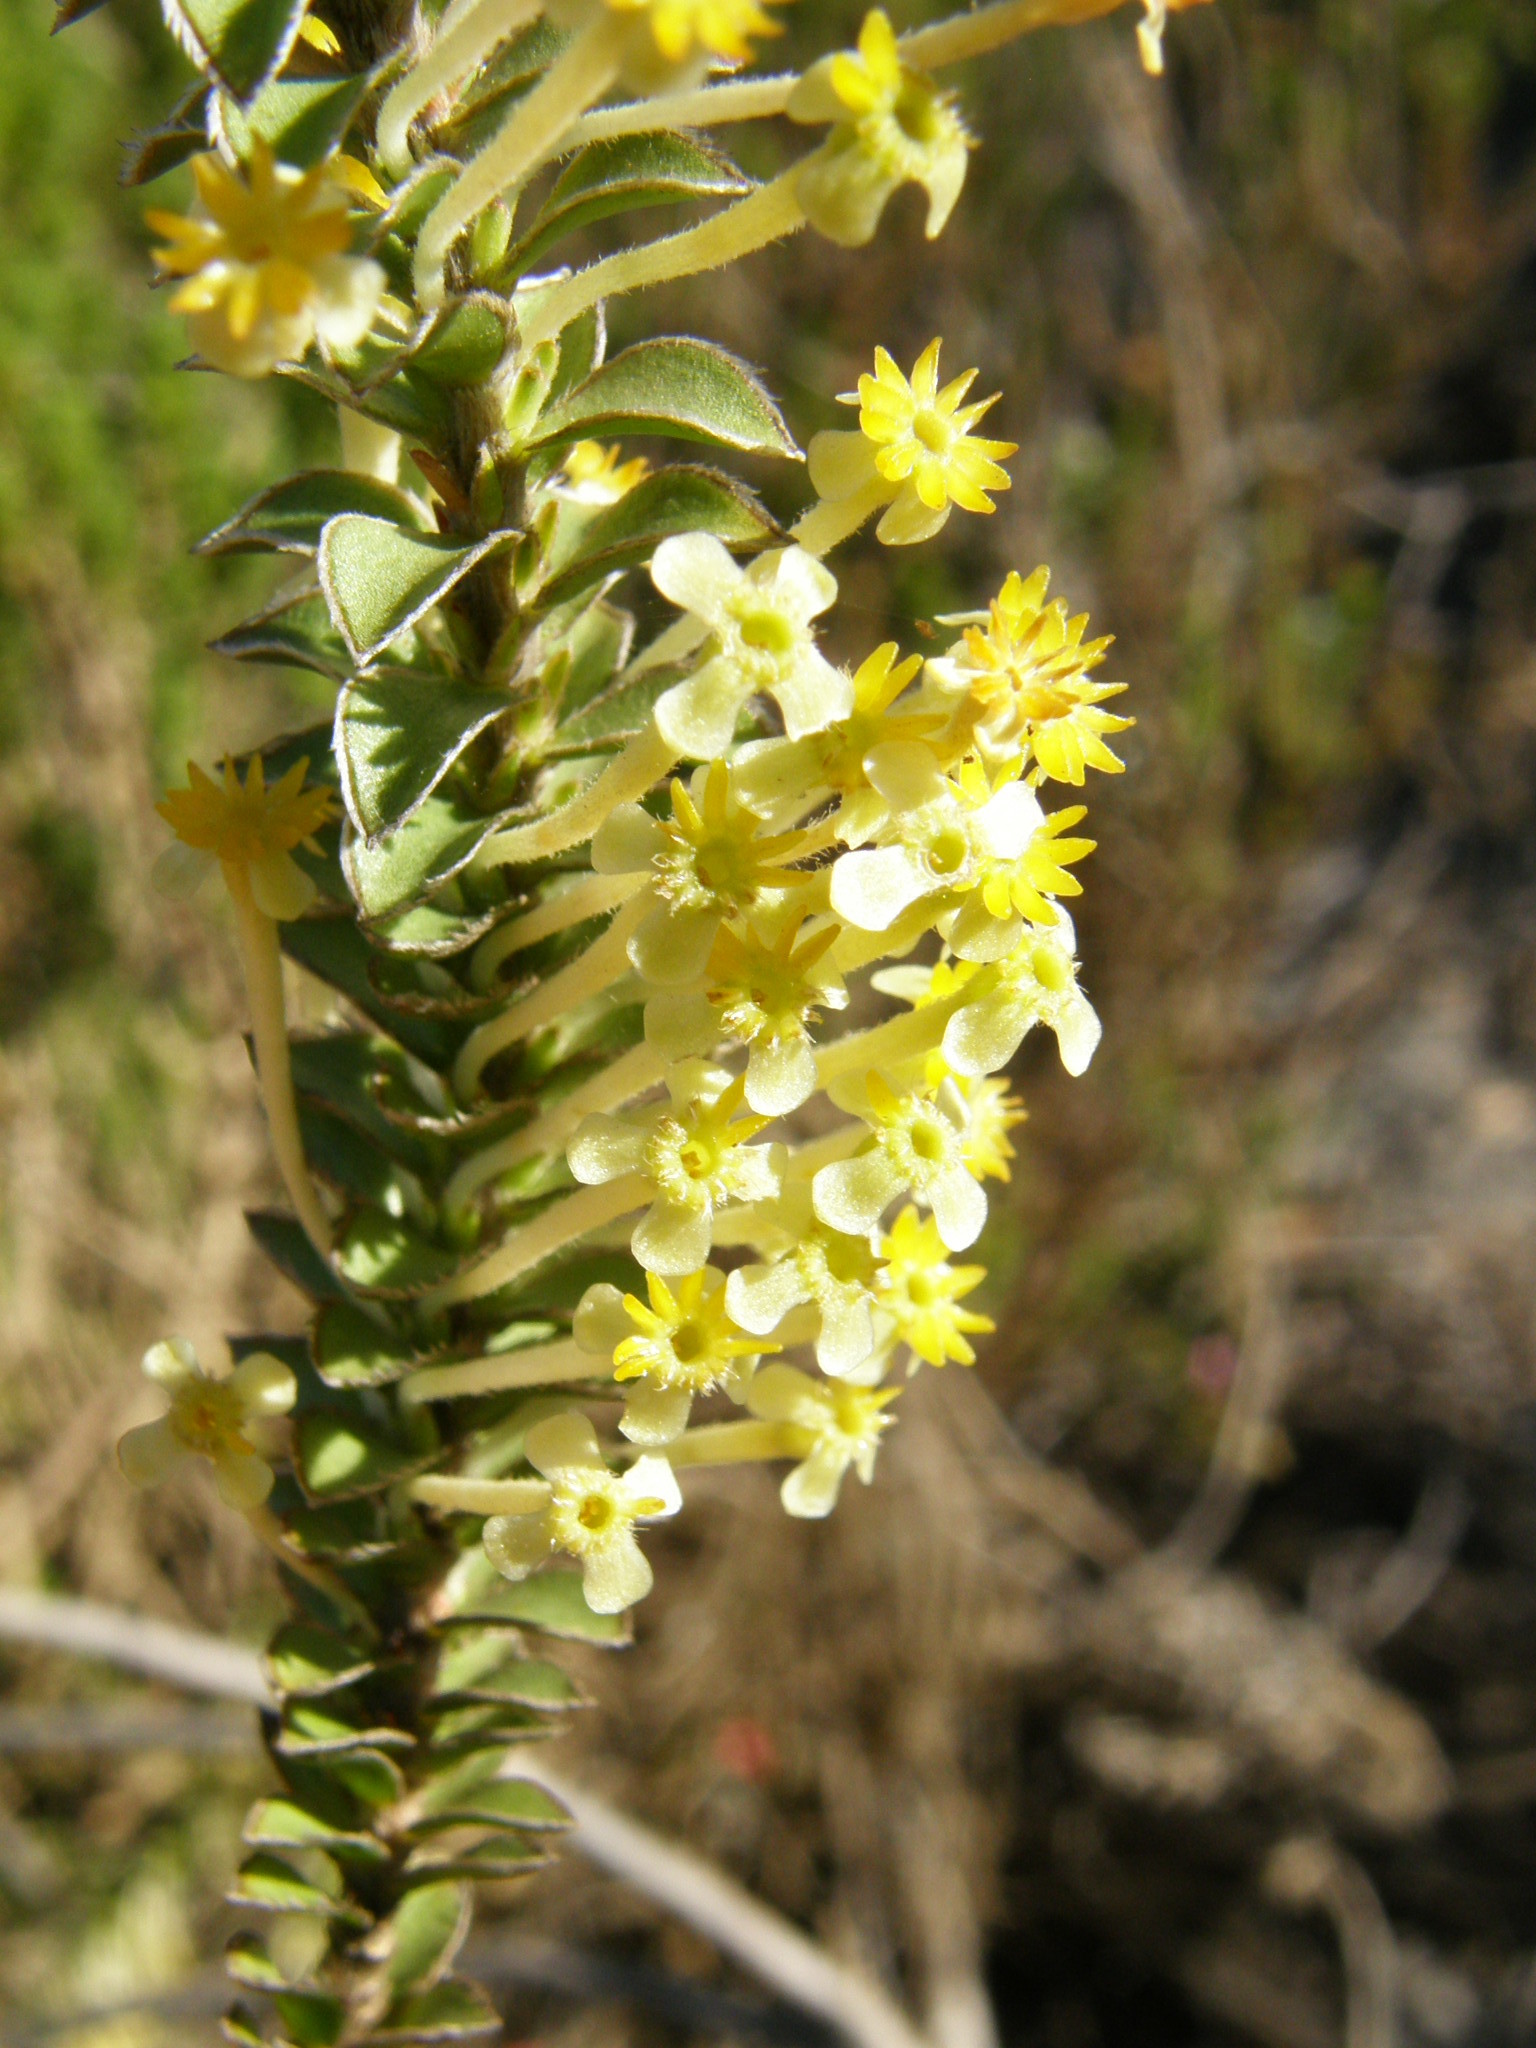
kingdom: Plantae
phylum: Tracheophyta
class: Magnoliopsida
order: Malvales
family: Thymelaeaceae
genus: Struthiola
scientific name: Struthiola argentea
